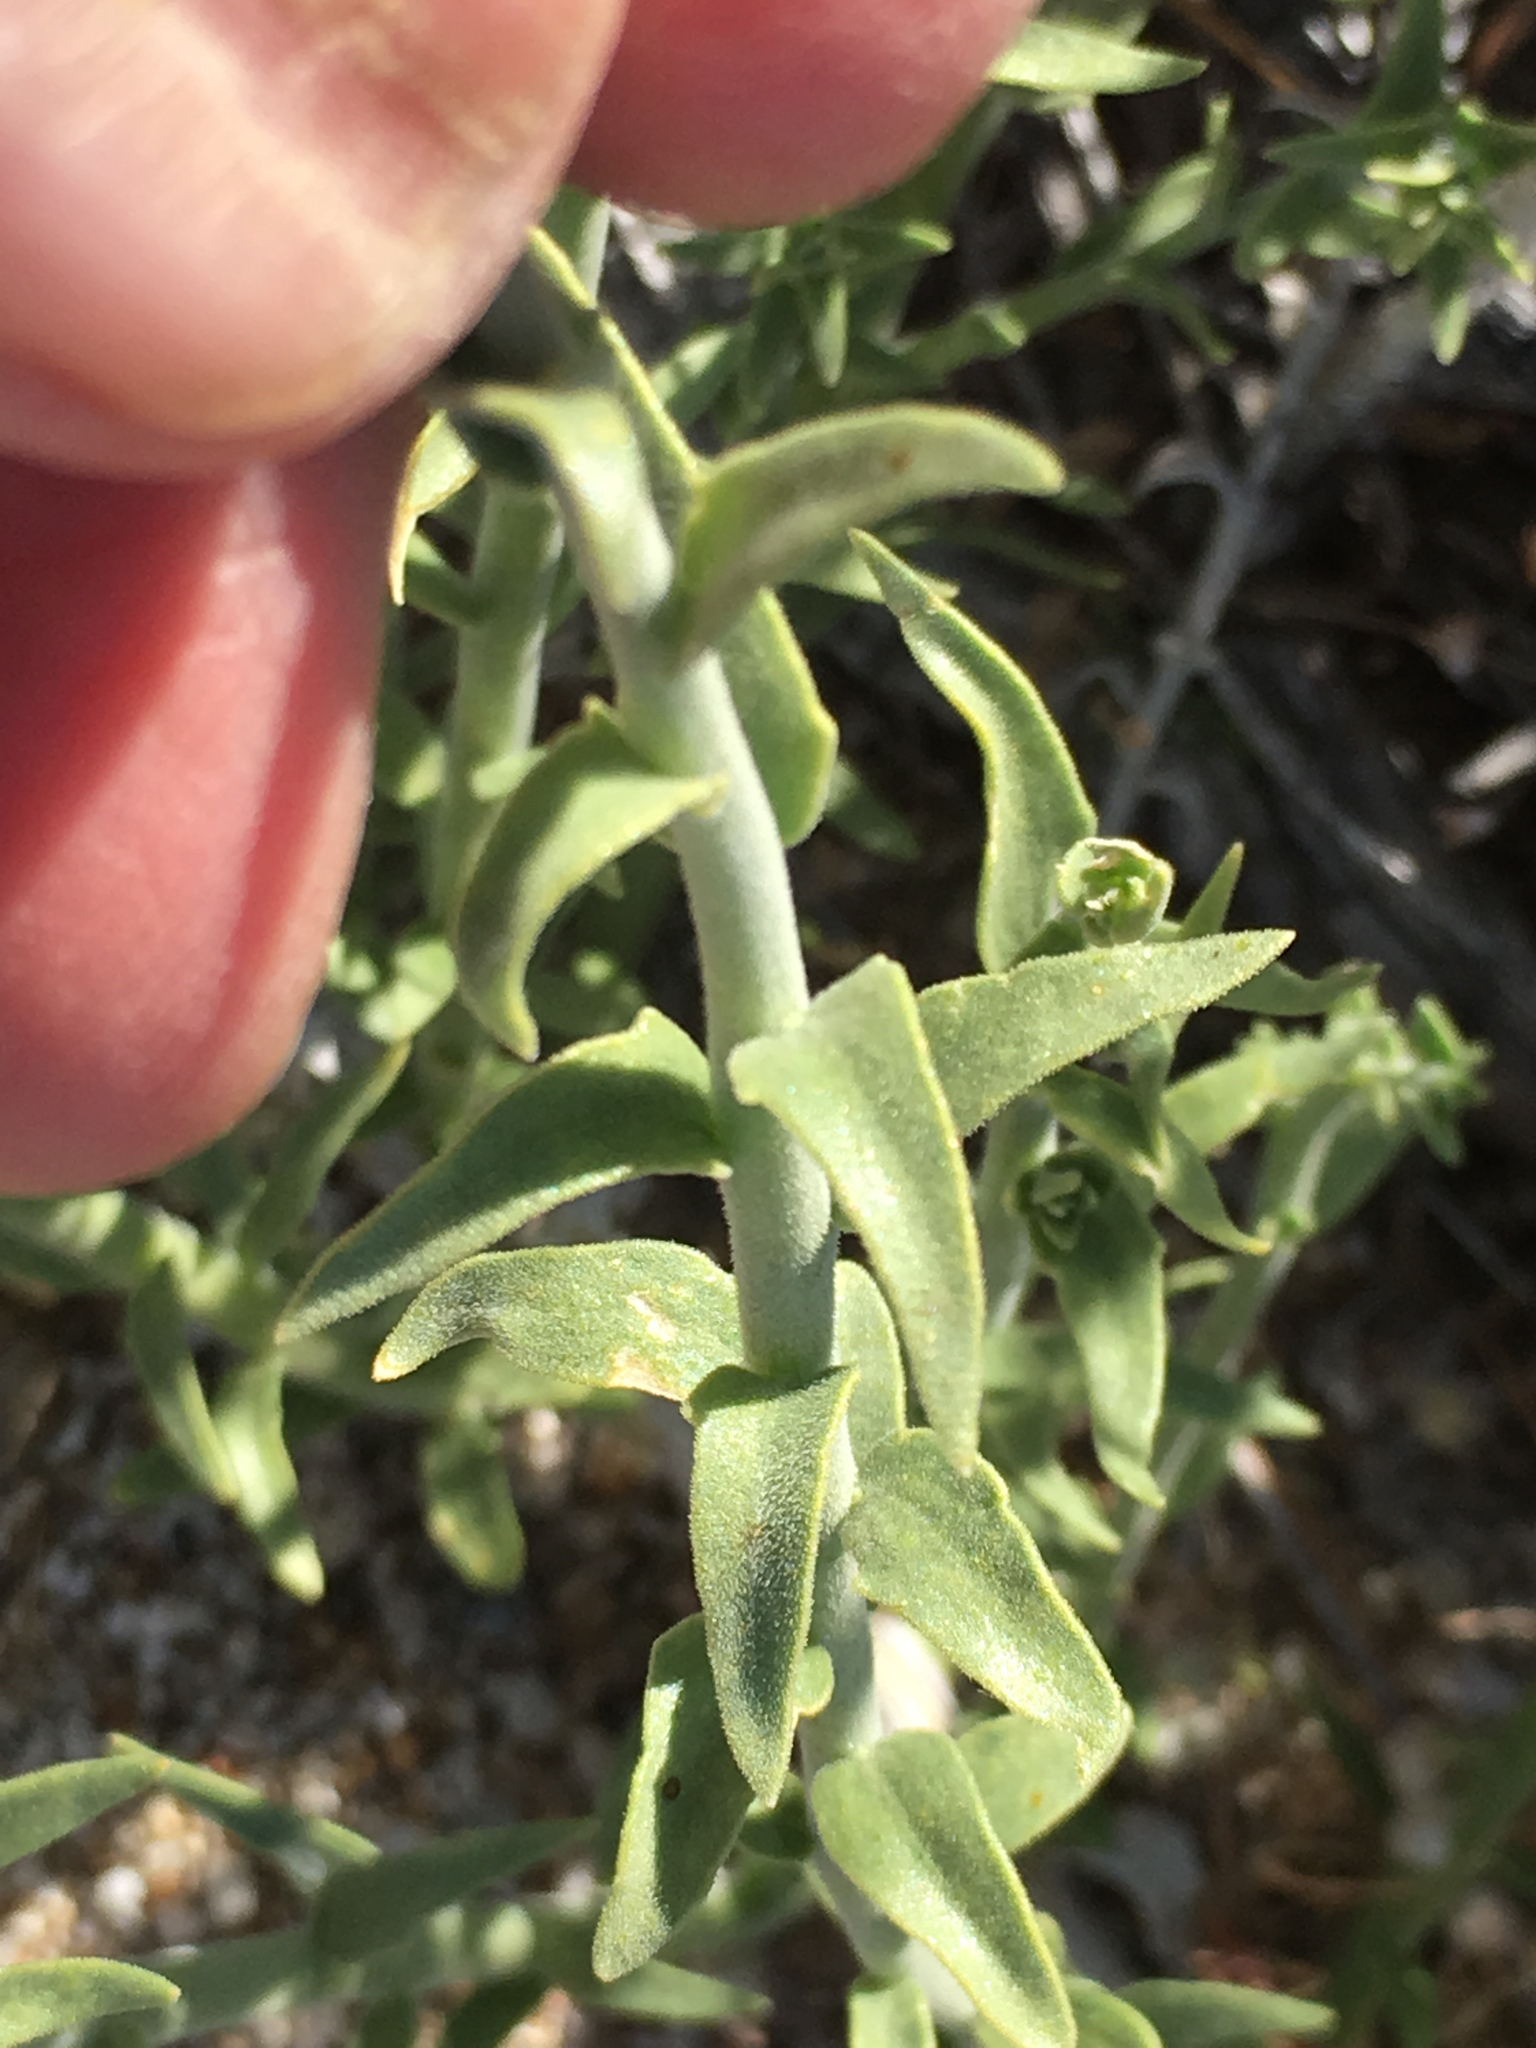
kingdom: Plantae
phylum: Tracheophyta
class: Magnoliopsida
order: Cornales
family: Loasaceae
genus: Petalonyx
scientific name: Petalonyx thurberi
